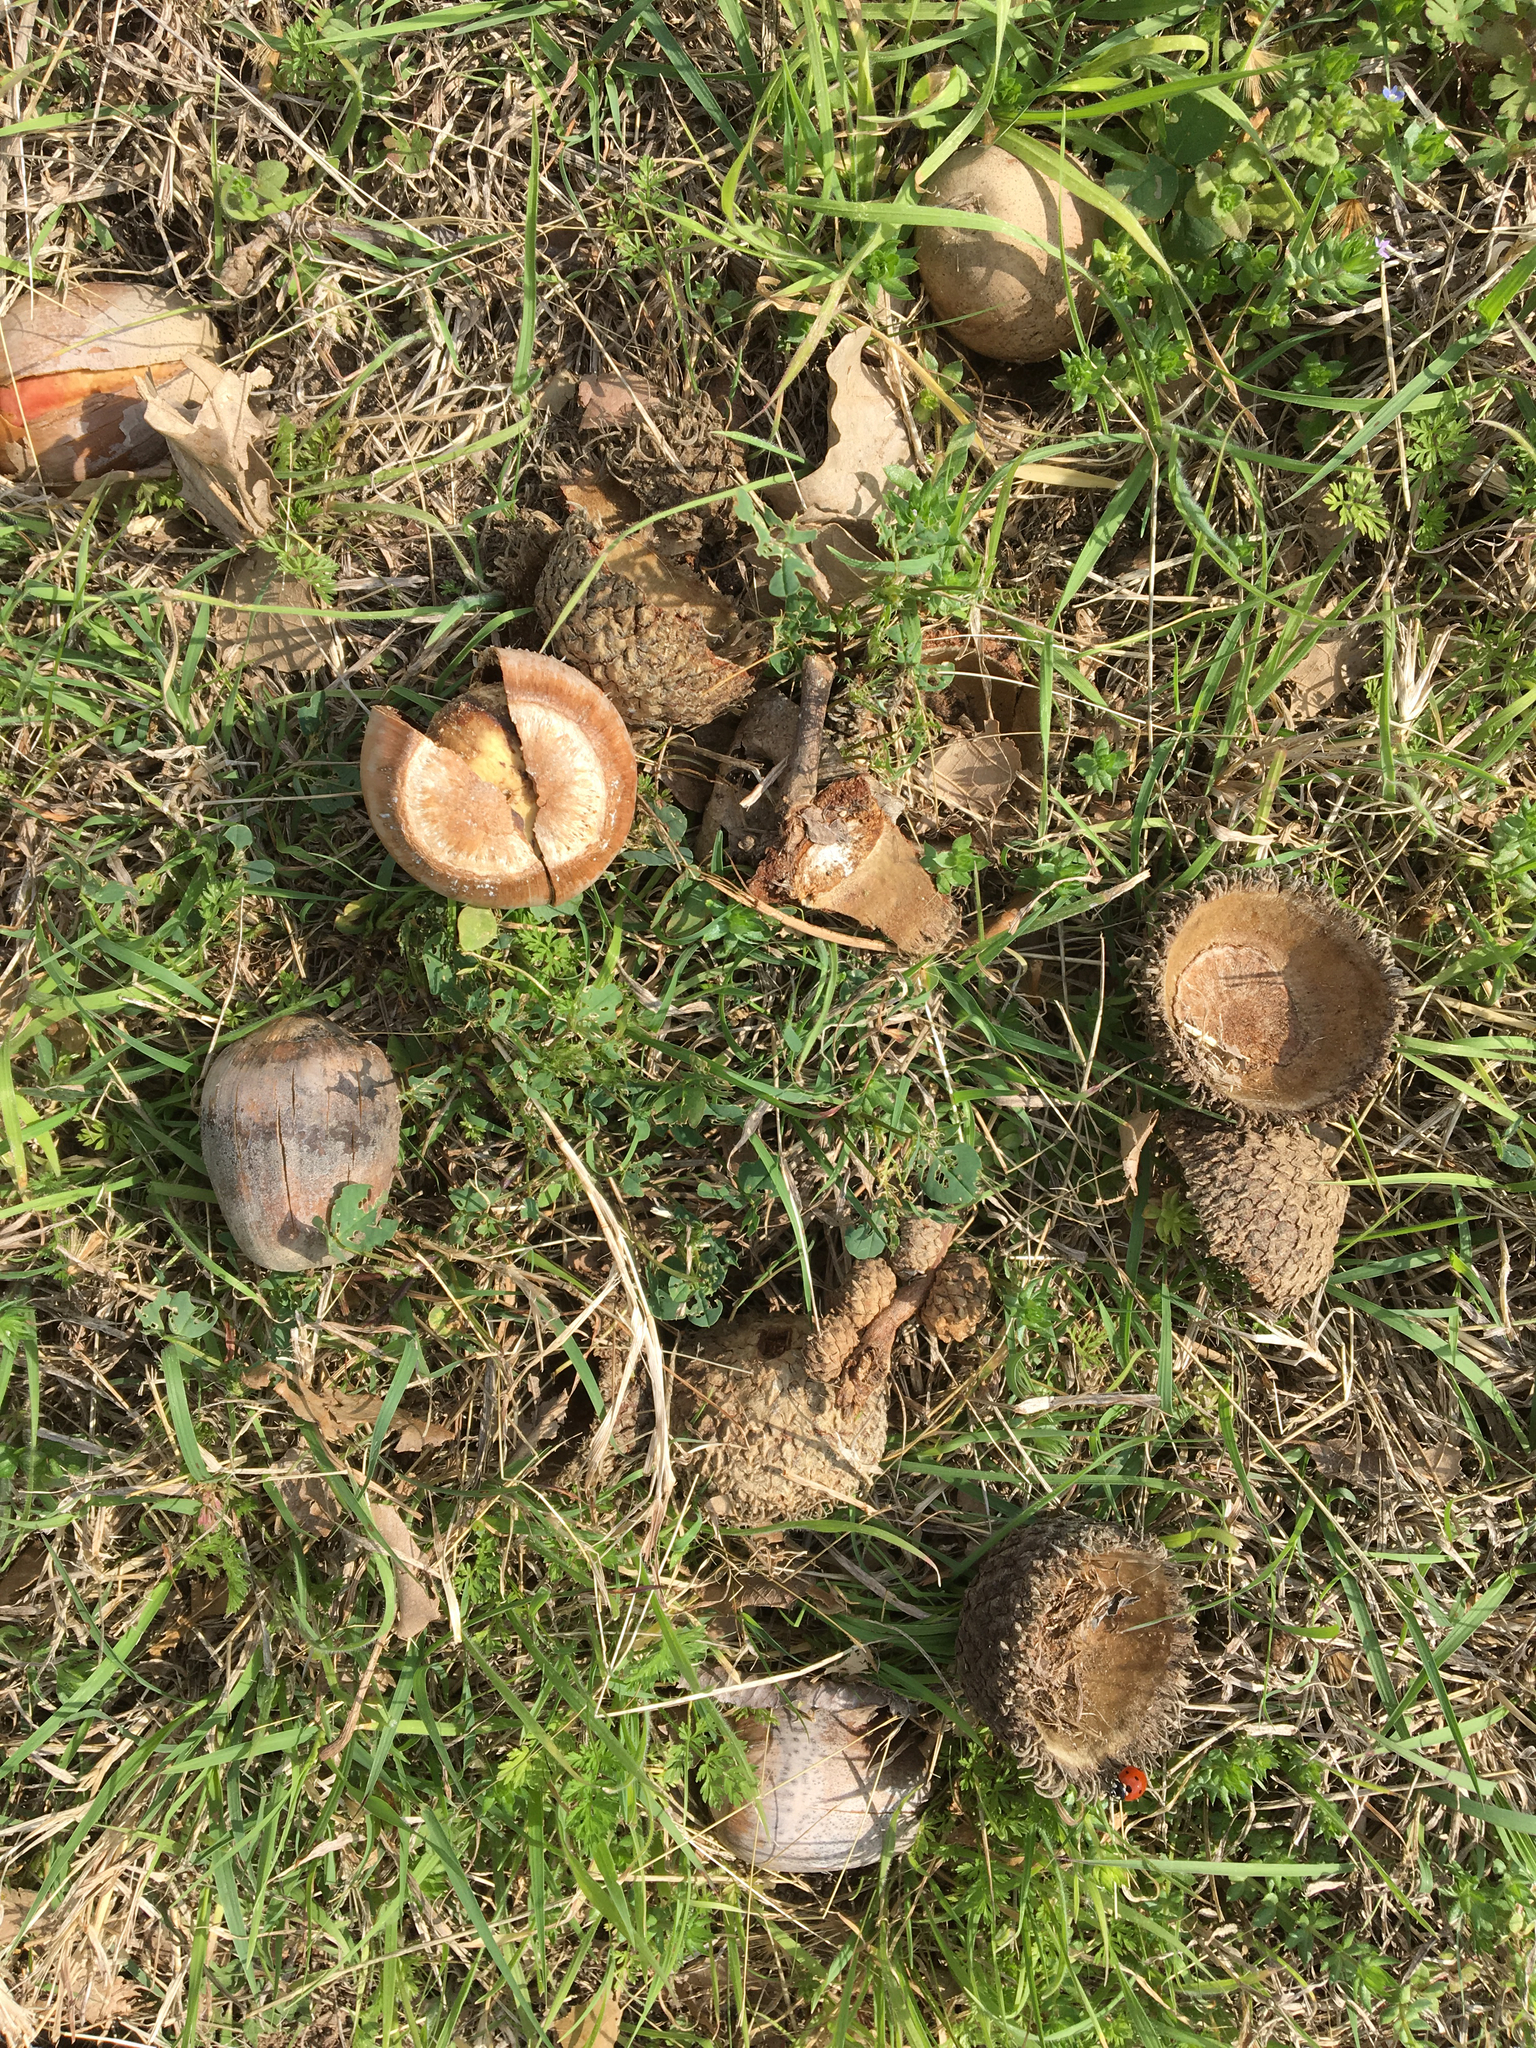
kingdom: Plantae
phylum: Tracheophyta
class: Magnoliopsida
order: Fagales
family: Fagaceae
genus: Quercus
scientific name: Quercus macrocarpa
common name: Bur oak
